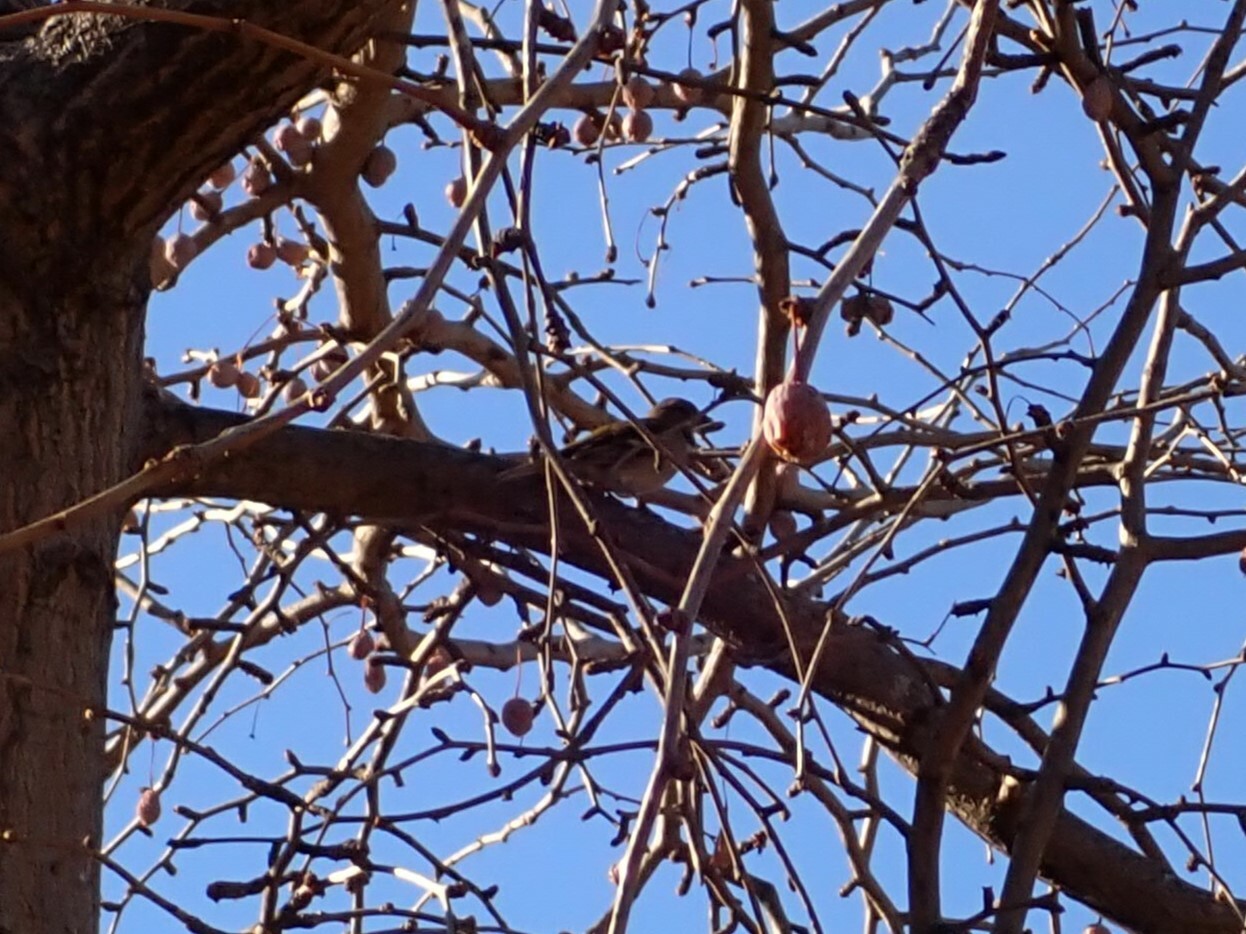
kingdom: Animalia
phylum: Chordata
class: Aves
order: Passeriformes
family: Fringillidae
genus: Fringilla
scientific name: Fringilla coelebs
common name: Common chaffinch
